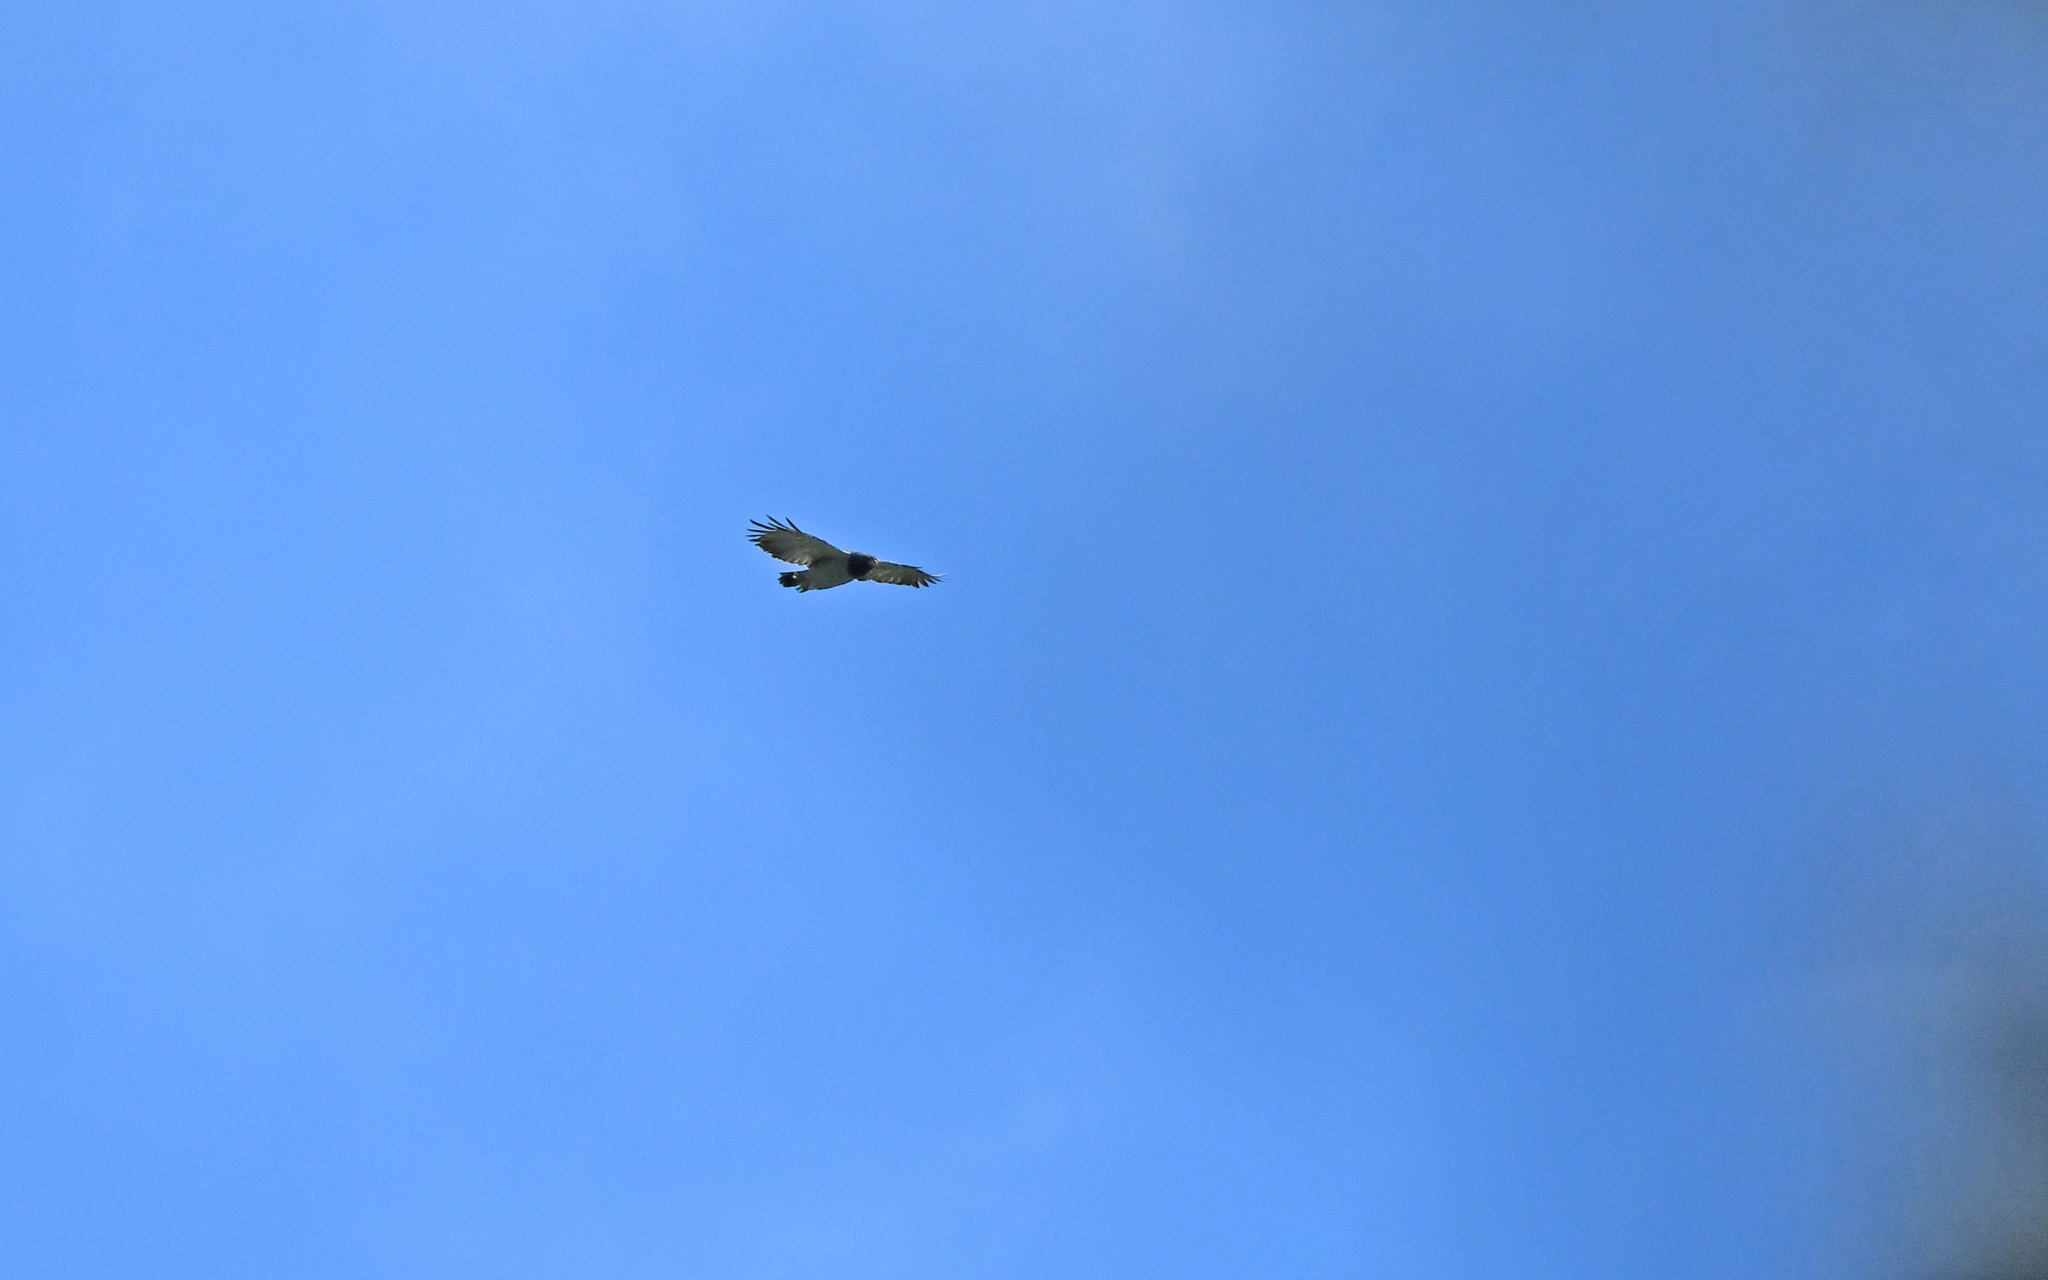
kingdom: Animalia
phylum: Chordata
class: Aves
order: Accipitriformes
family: Accipitridae
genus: Leucopternis
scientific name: Leucopternis princeps
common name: Barred hawk
